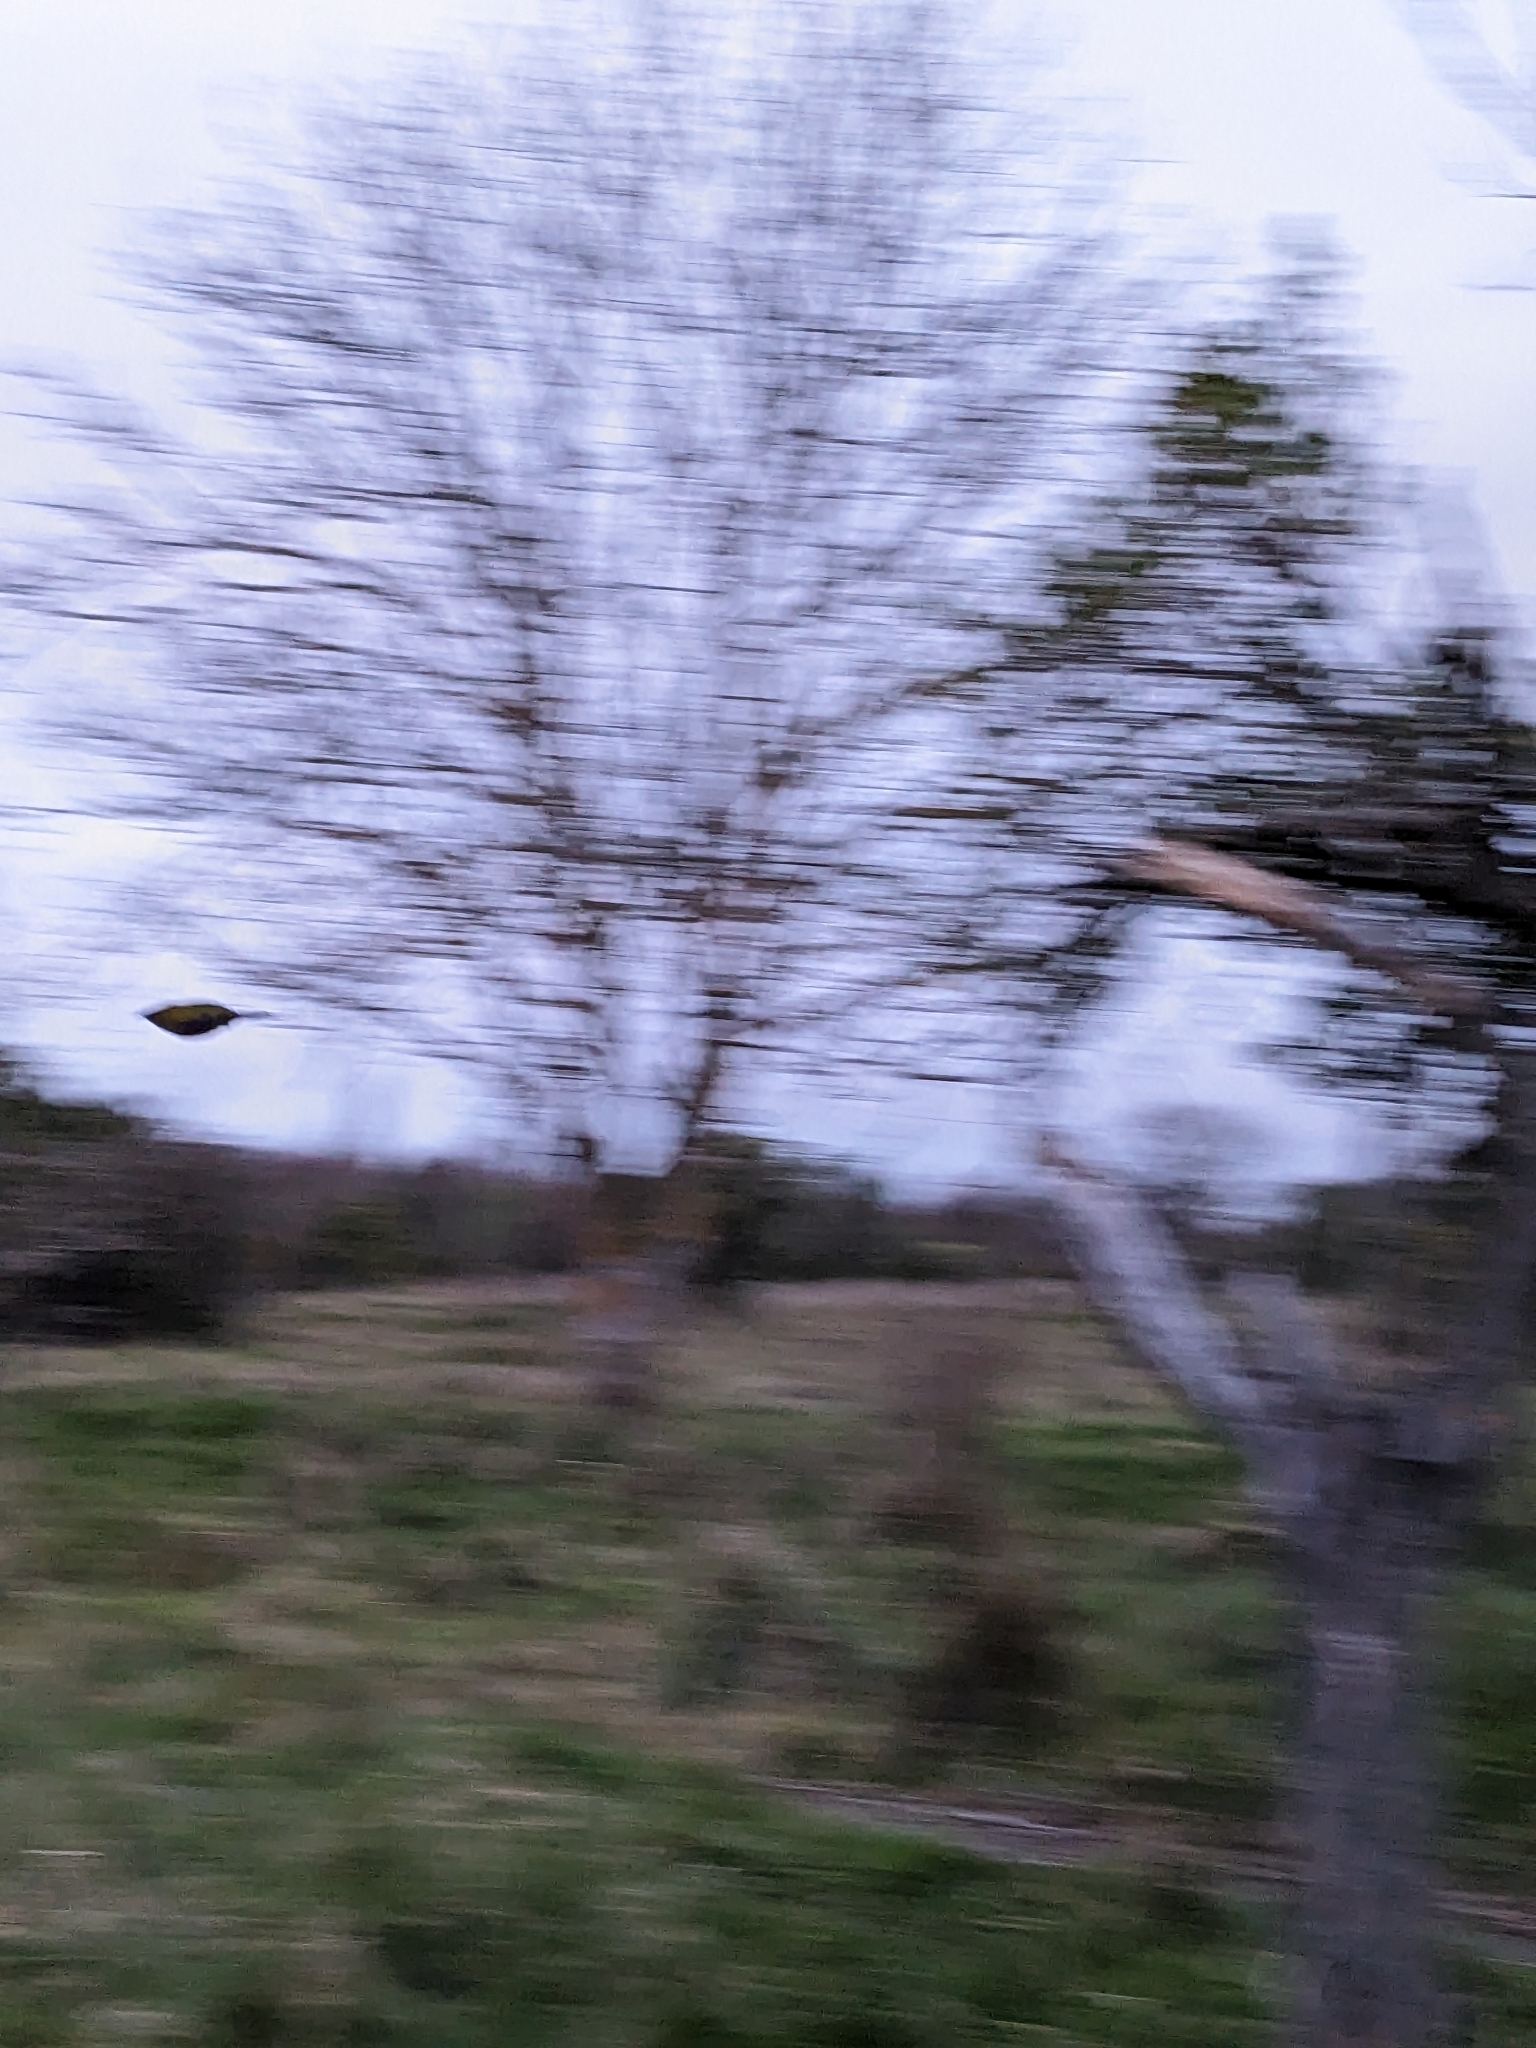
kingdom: Animalia
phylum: Chordata
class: Aves
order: Passeriformes
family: Meliphagidae
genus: Anthornis
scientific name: Anthornis melanura
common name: New zealand bellbird
